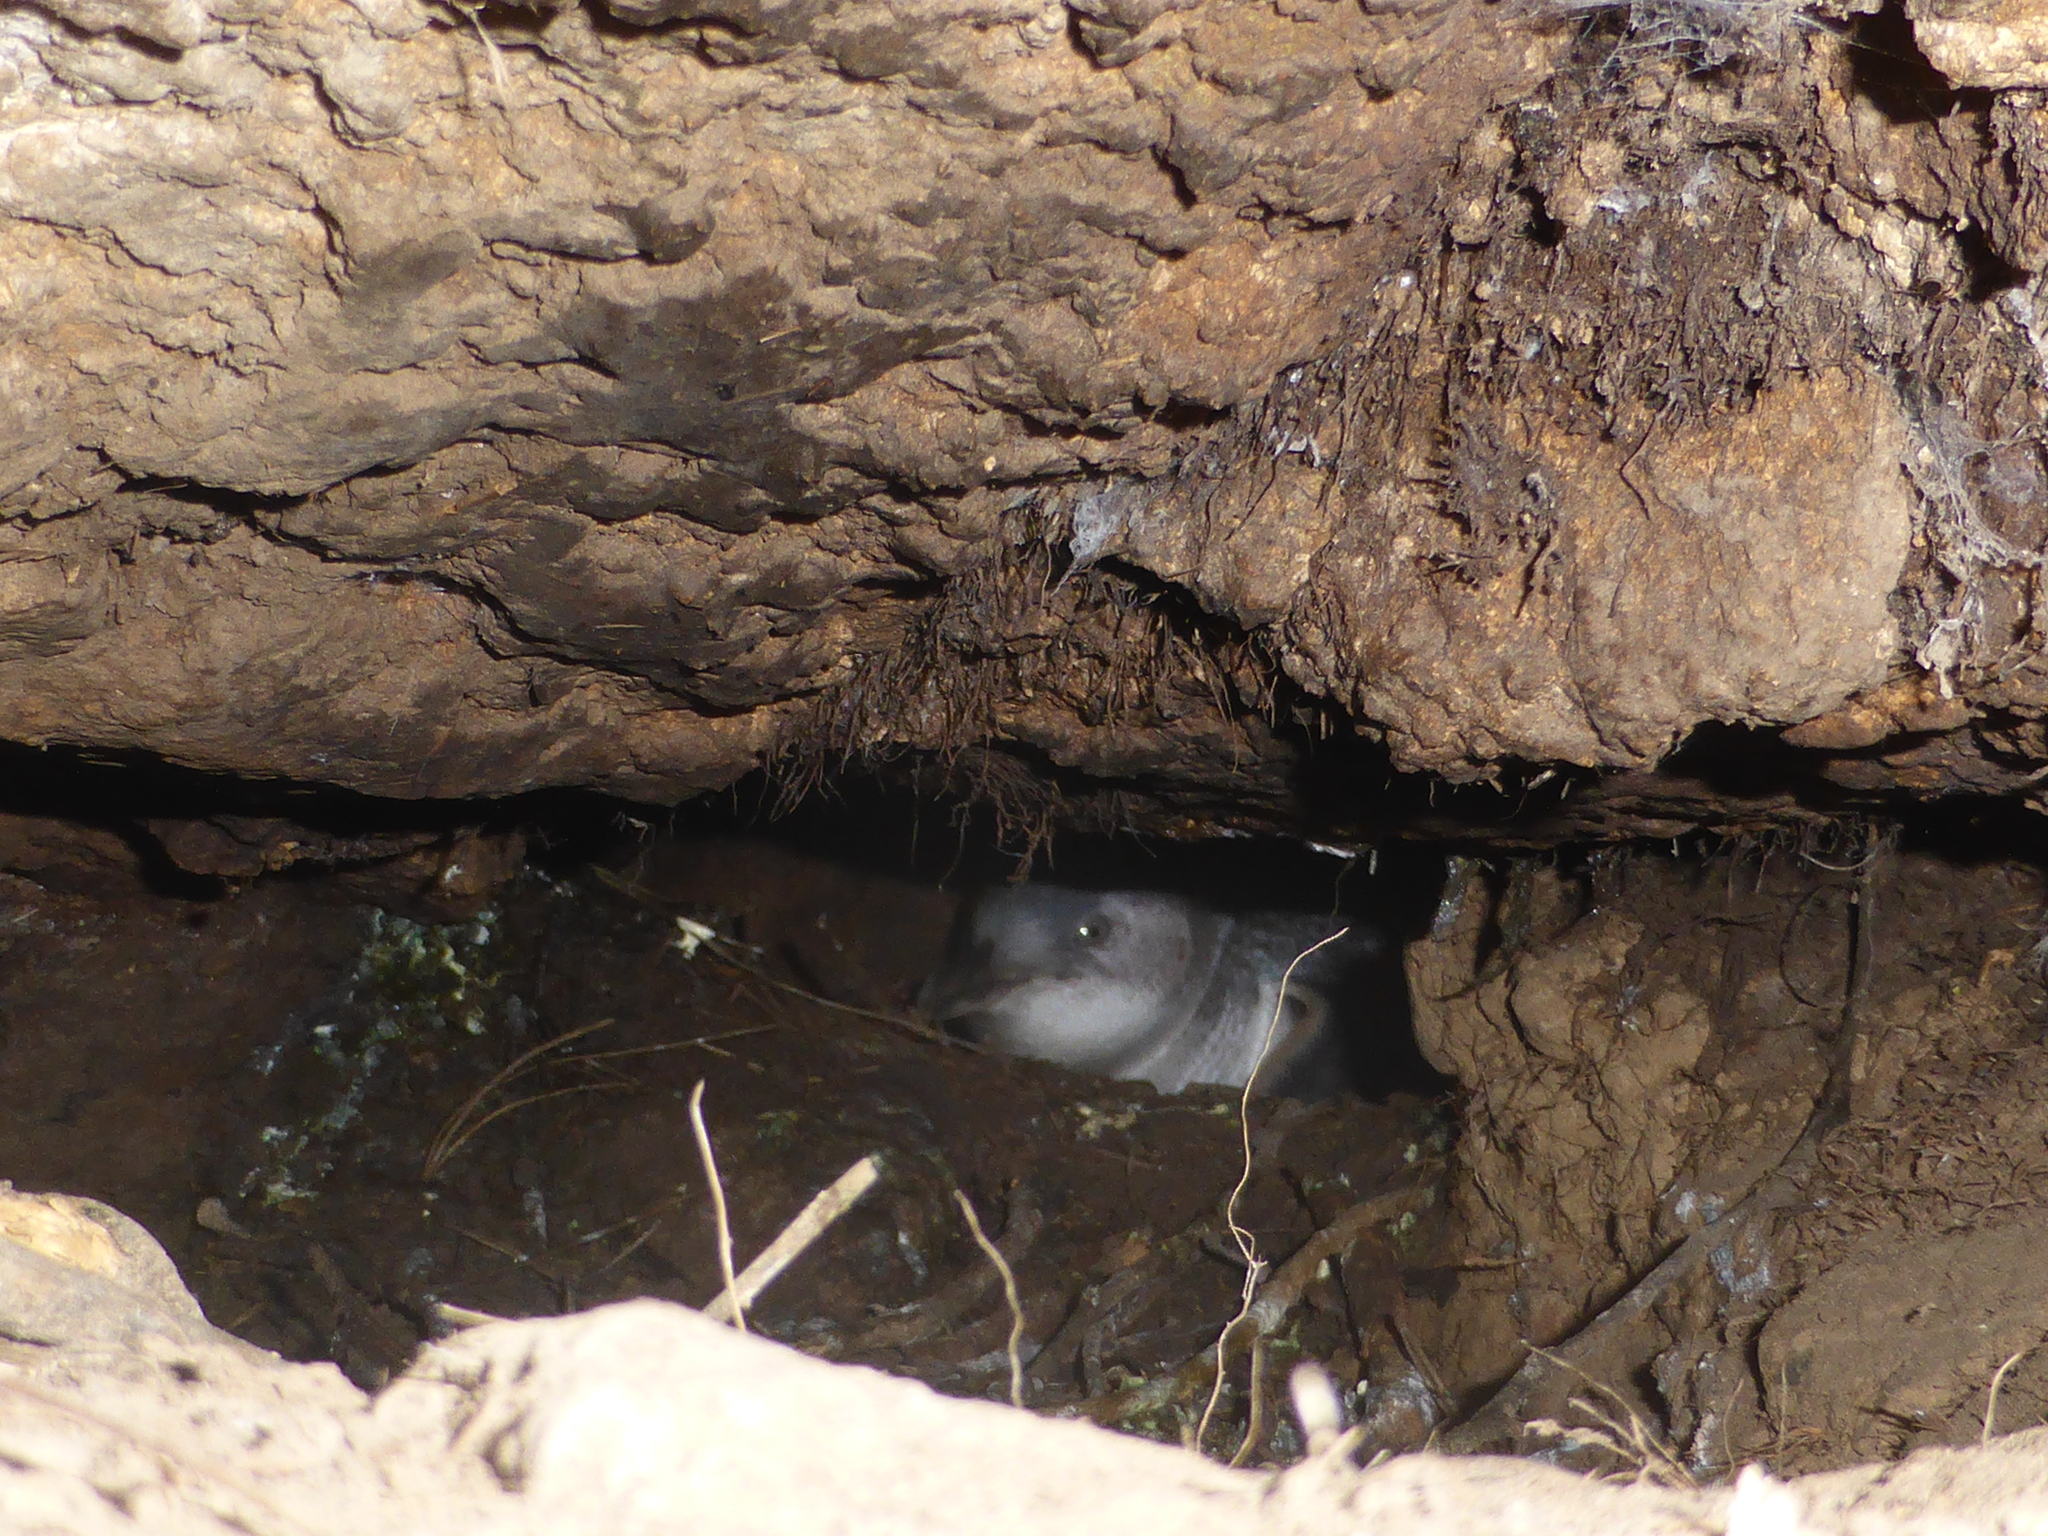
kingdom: Animalia
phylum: Chordata
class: Aves
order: Sphenisciformes
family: Spheniscidae
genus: Eudyptula
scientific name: Eudyptula minor
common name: Little penguin
